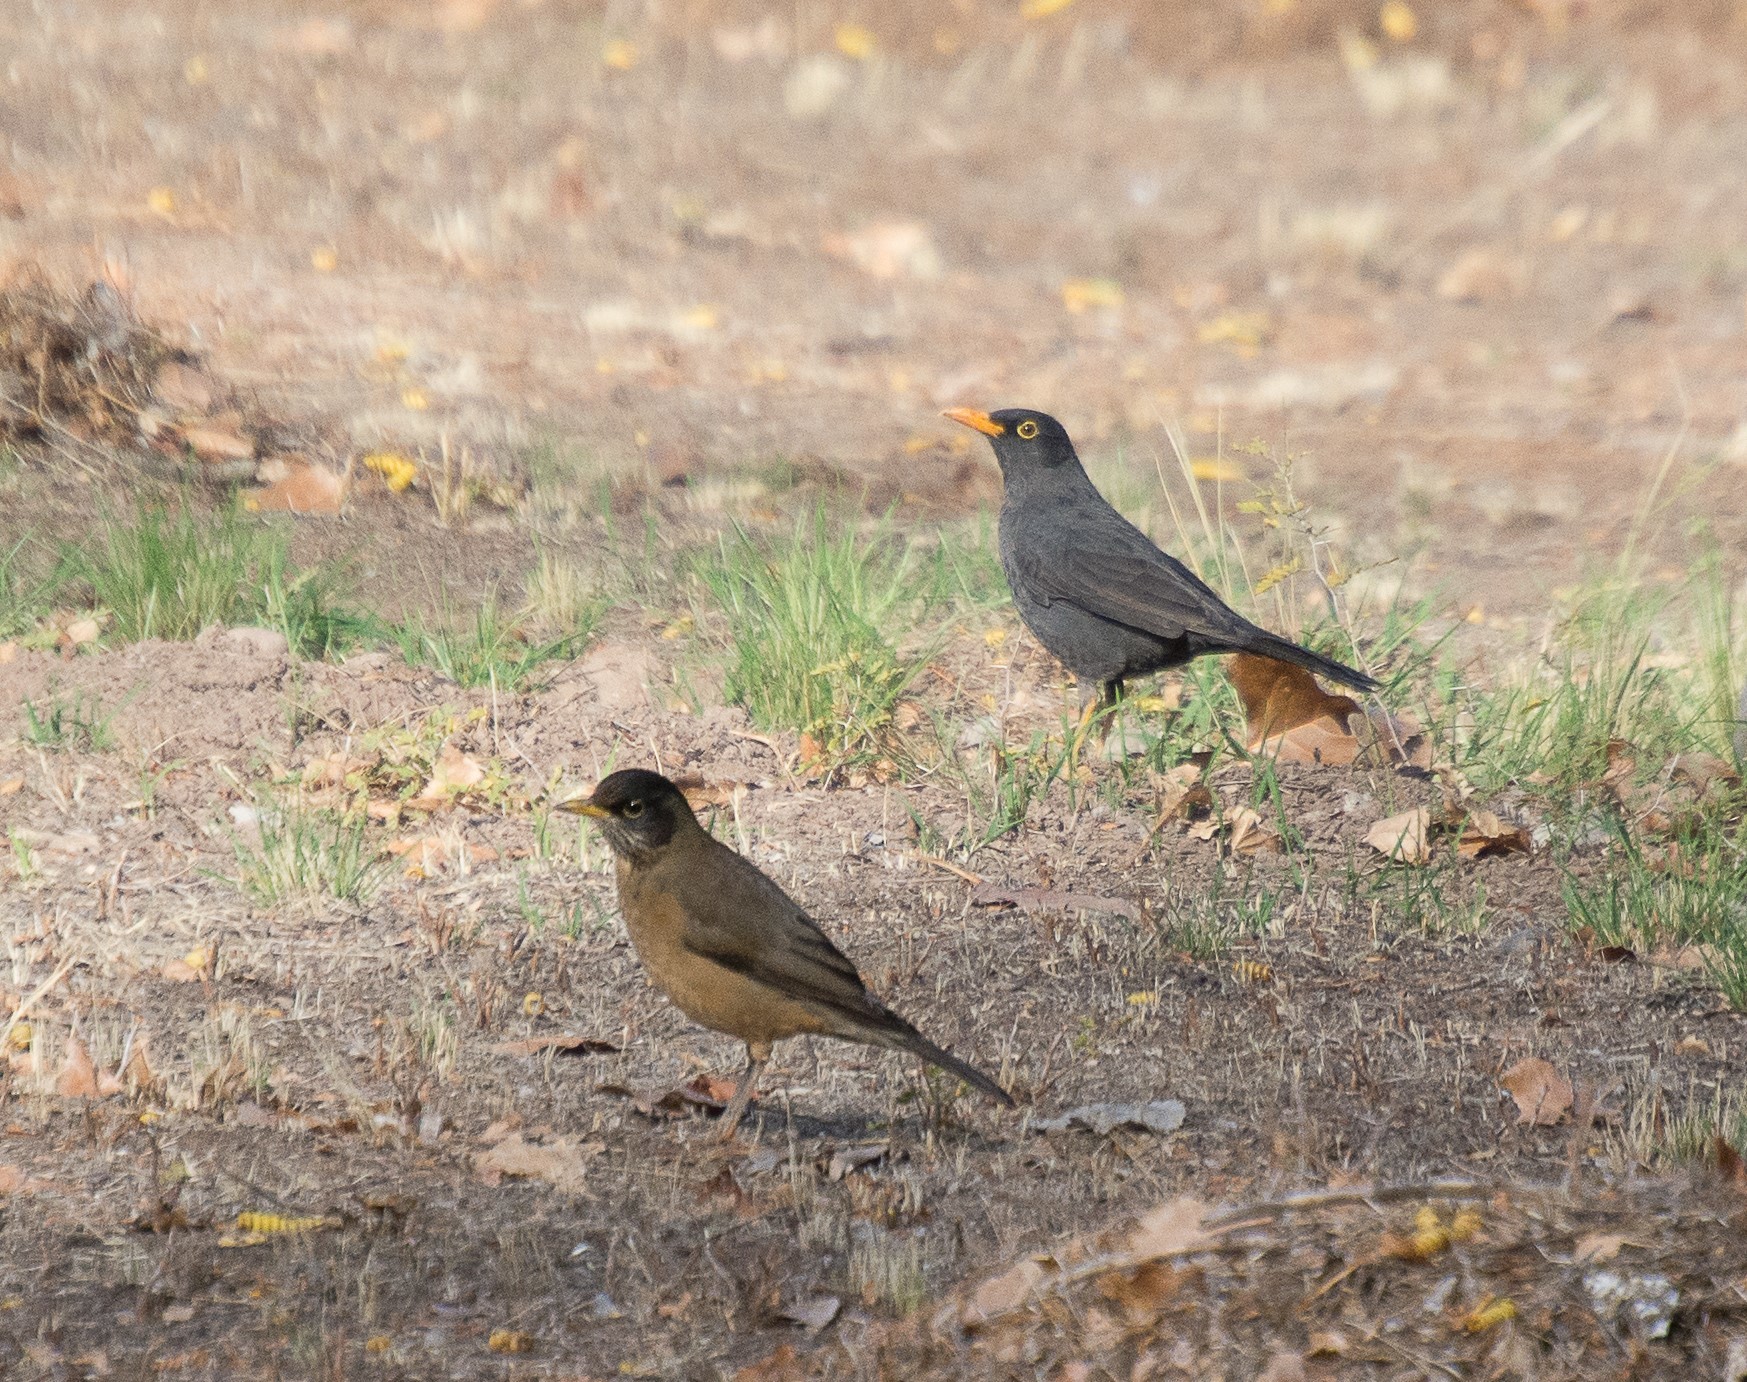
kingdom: Animalia
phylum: Chordata
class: Aves
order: Passeriformes
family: Turdidae
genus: Turdus
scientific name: Turdus chiguanco
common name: Chiguanco thrush
